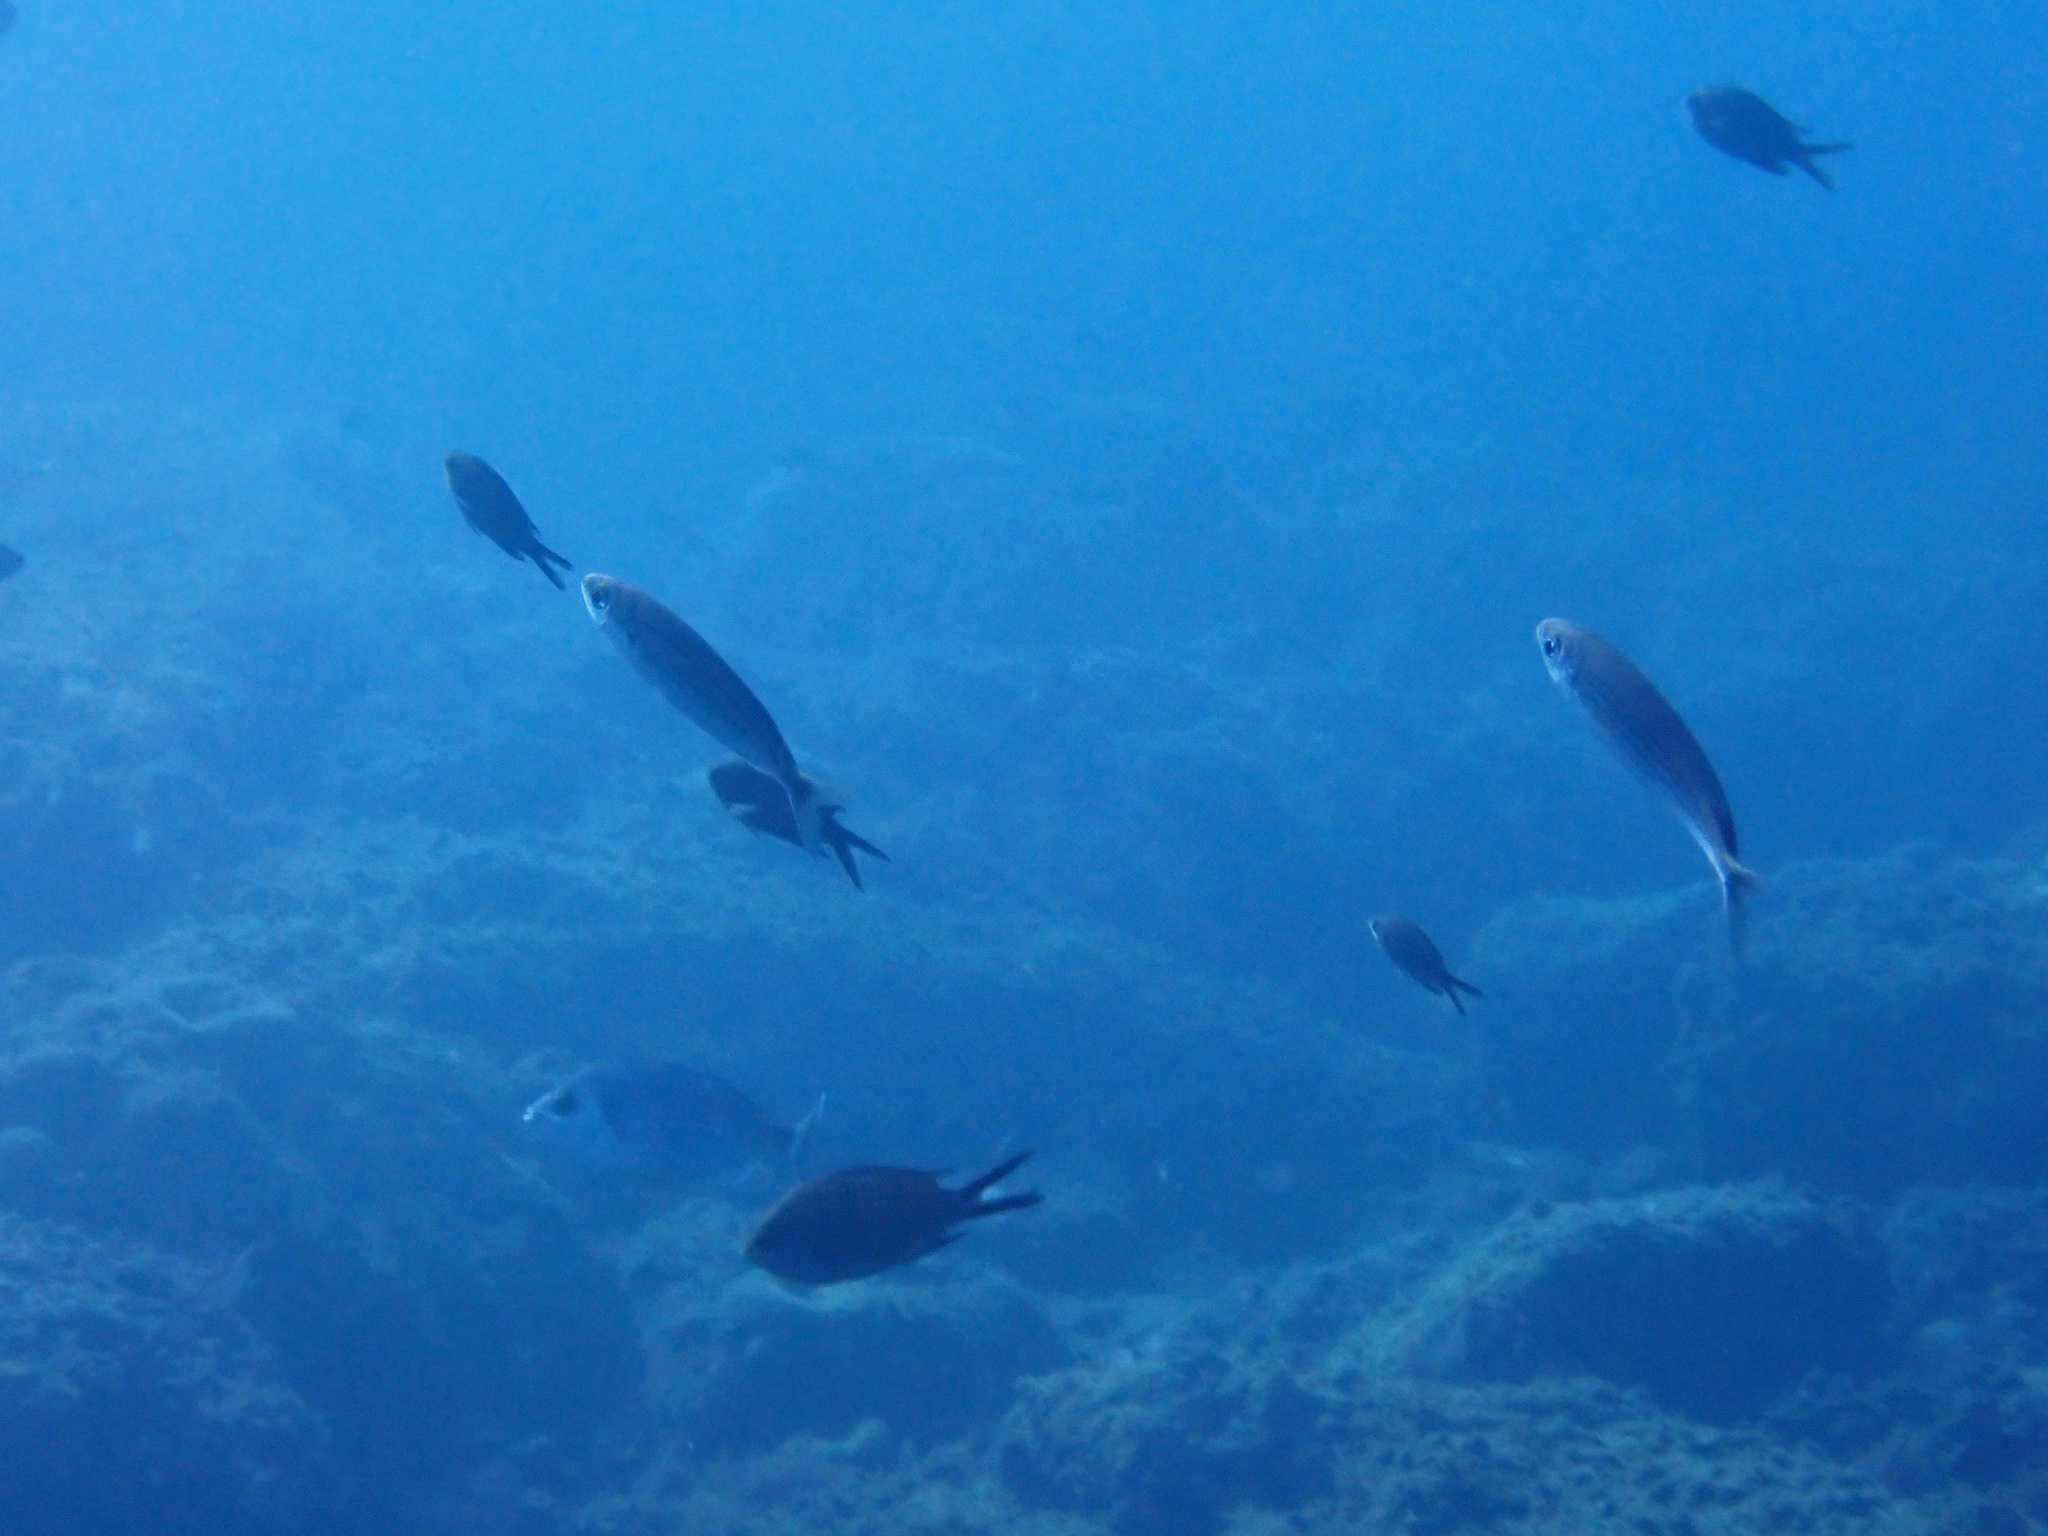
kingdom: Animalia
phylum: Chordata
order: Perciformes
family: Sparidae
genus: Boops
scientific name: Boops boops
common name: Bogue
